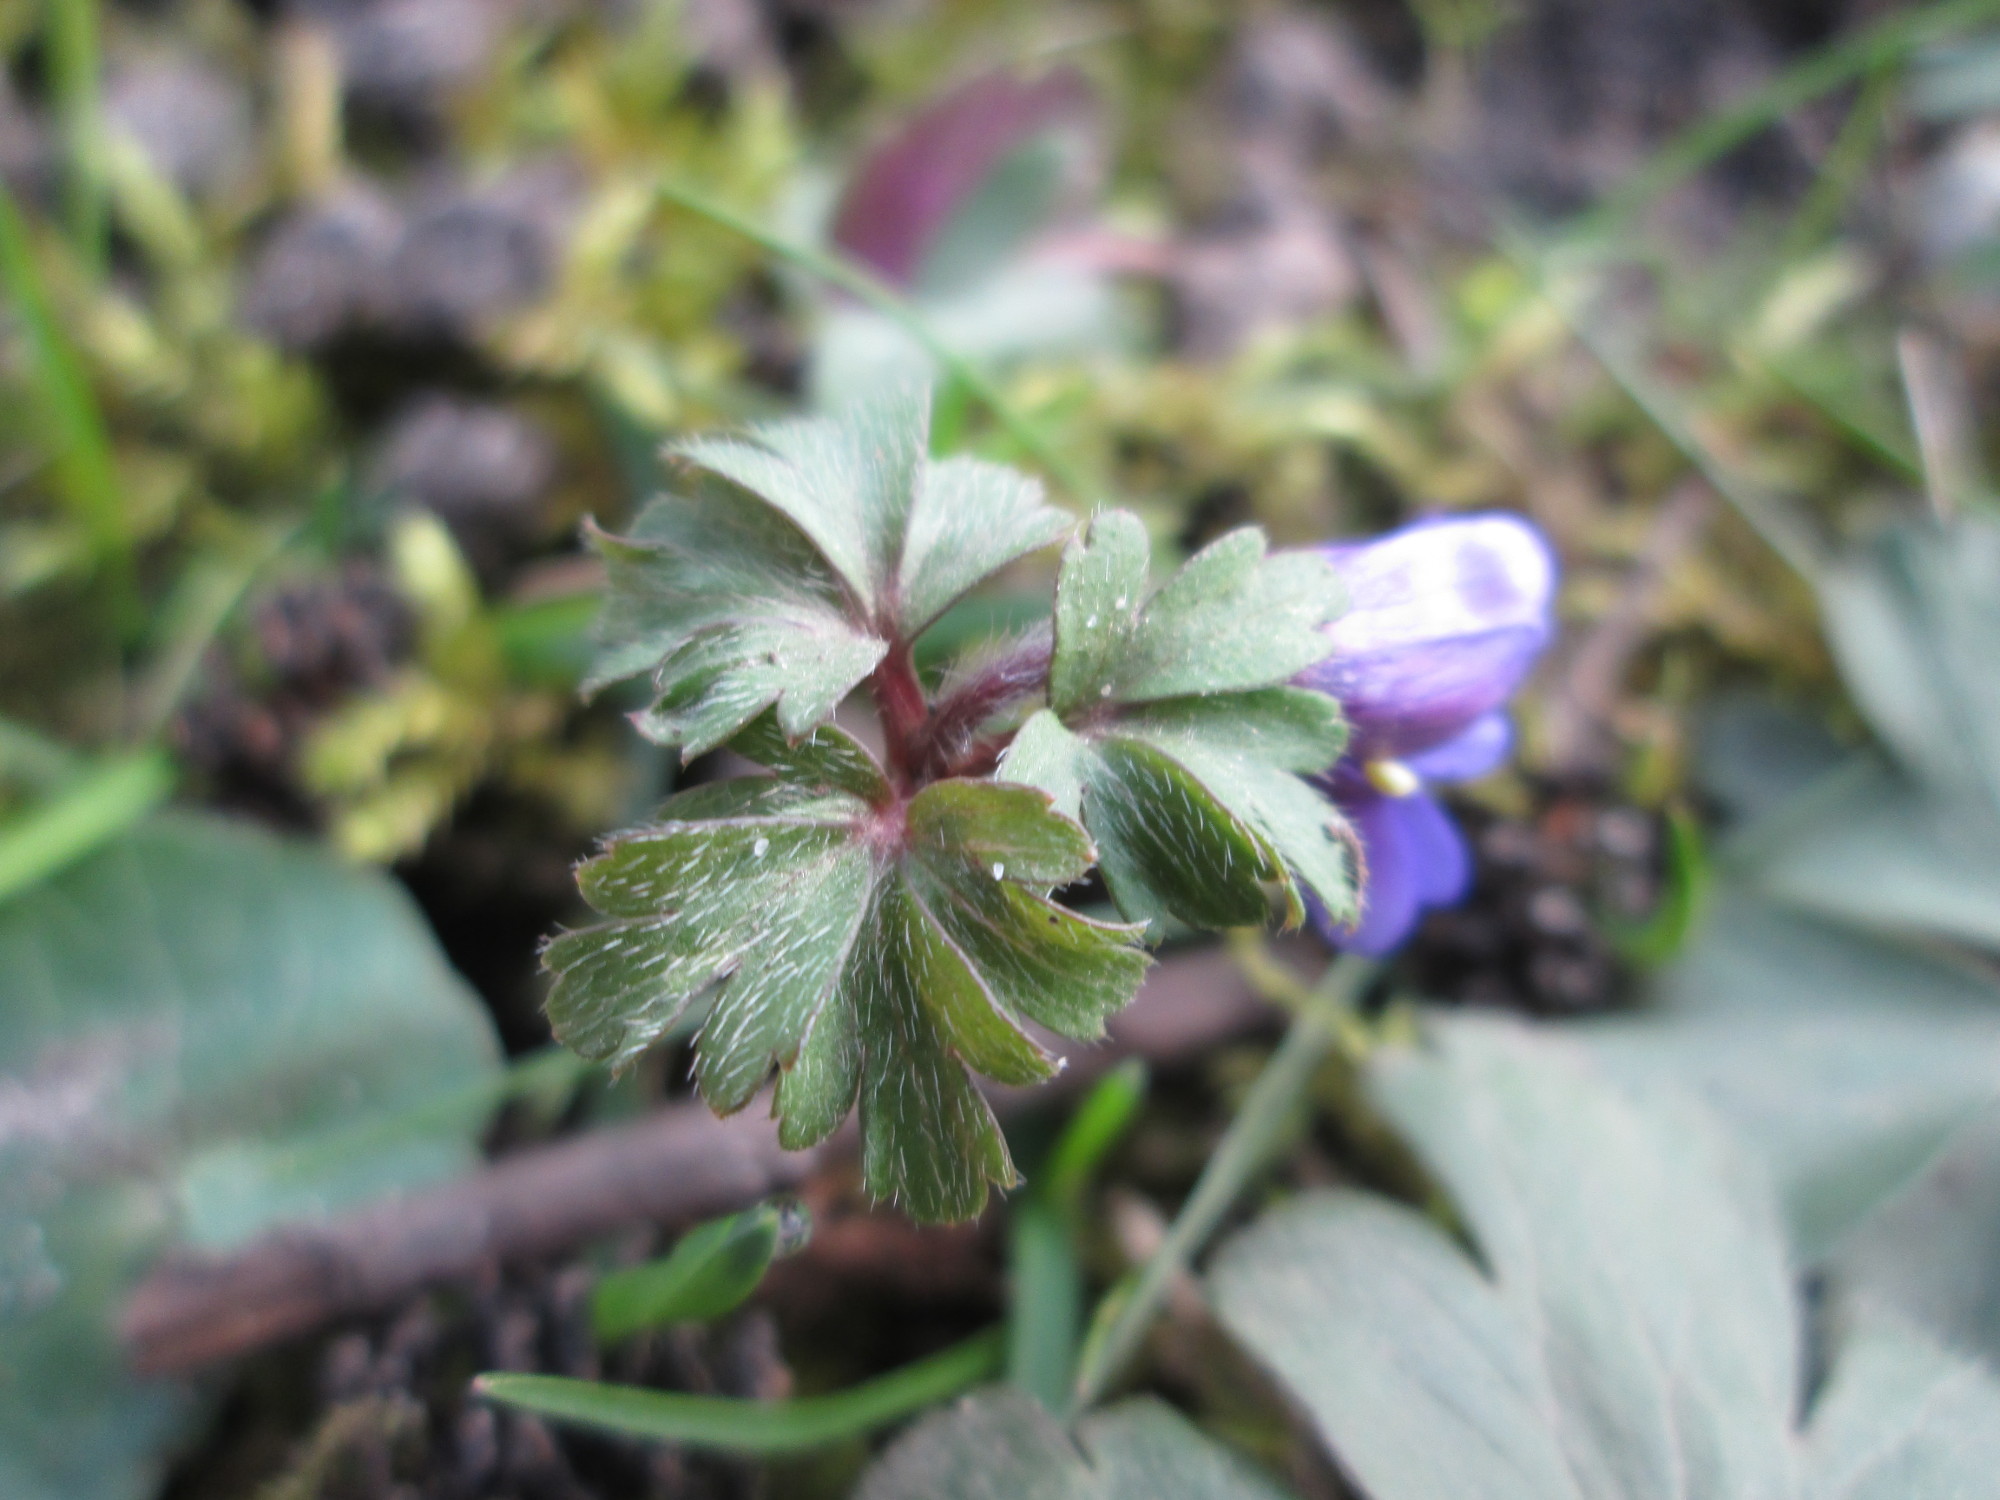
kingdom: Plantae
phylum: Tracheophyta
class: Magnoliopsida
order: Ranunculales
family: Ranunculaceae
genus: Anemone
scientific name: Anemone blanda
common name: Balkan anemone
